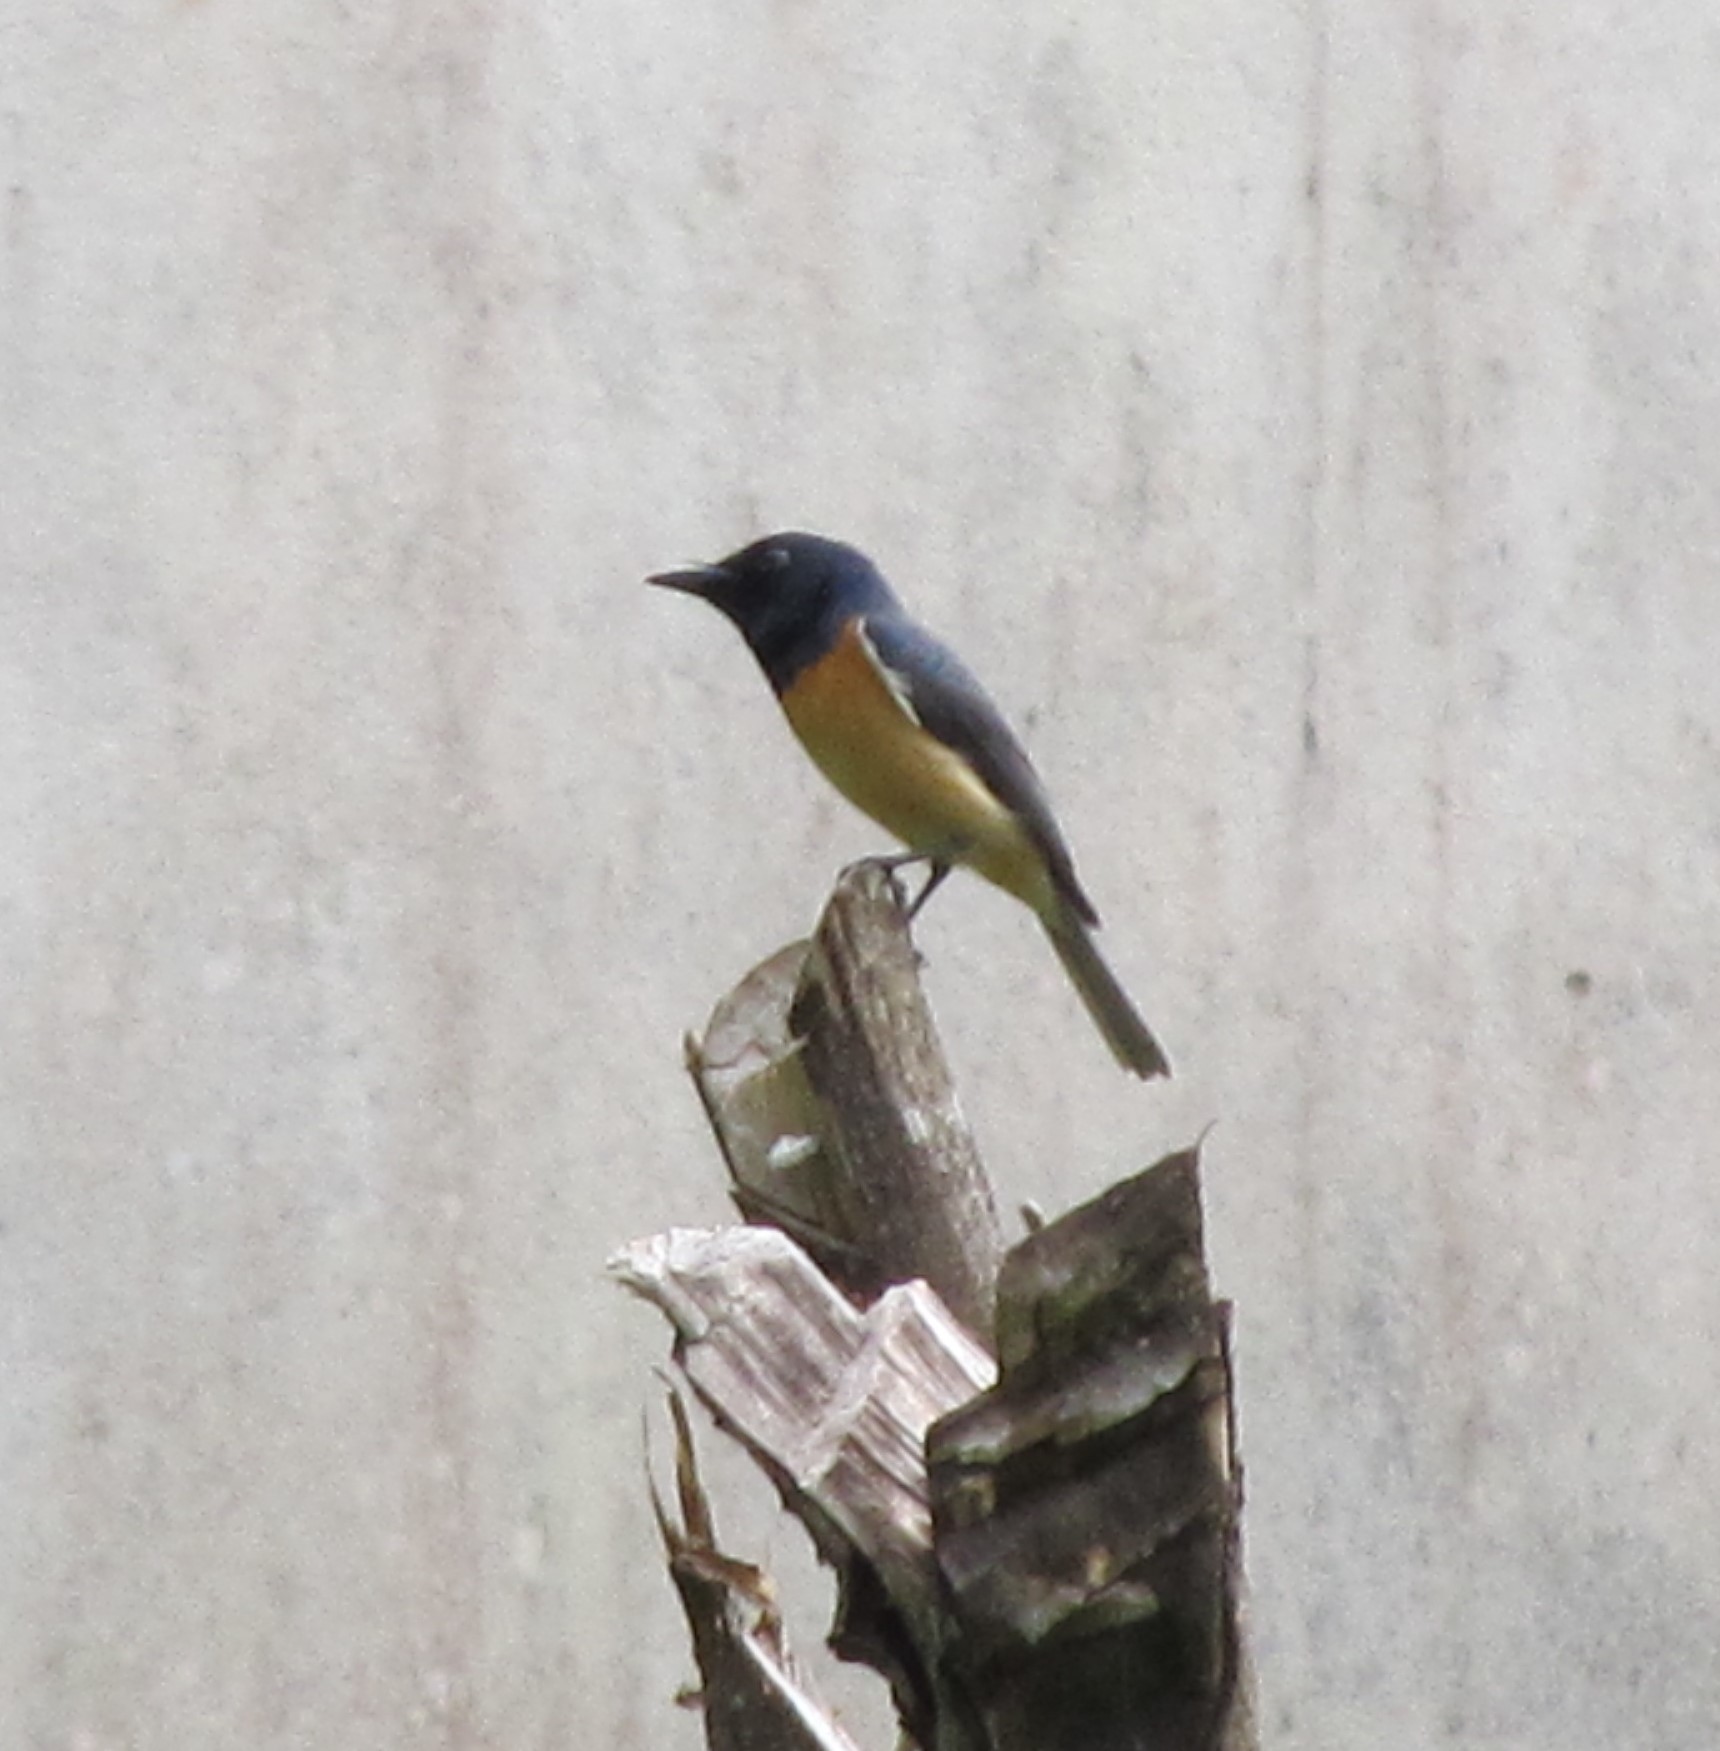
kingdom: Animalia
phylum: Chordata
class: Aves
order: Passeriformes
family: Monarchidae
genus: Myiagra
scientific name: Myiagra vanikorensis
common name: Vanikoro flycatcher
